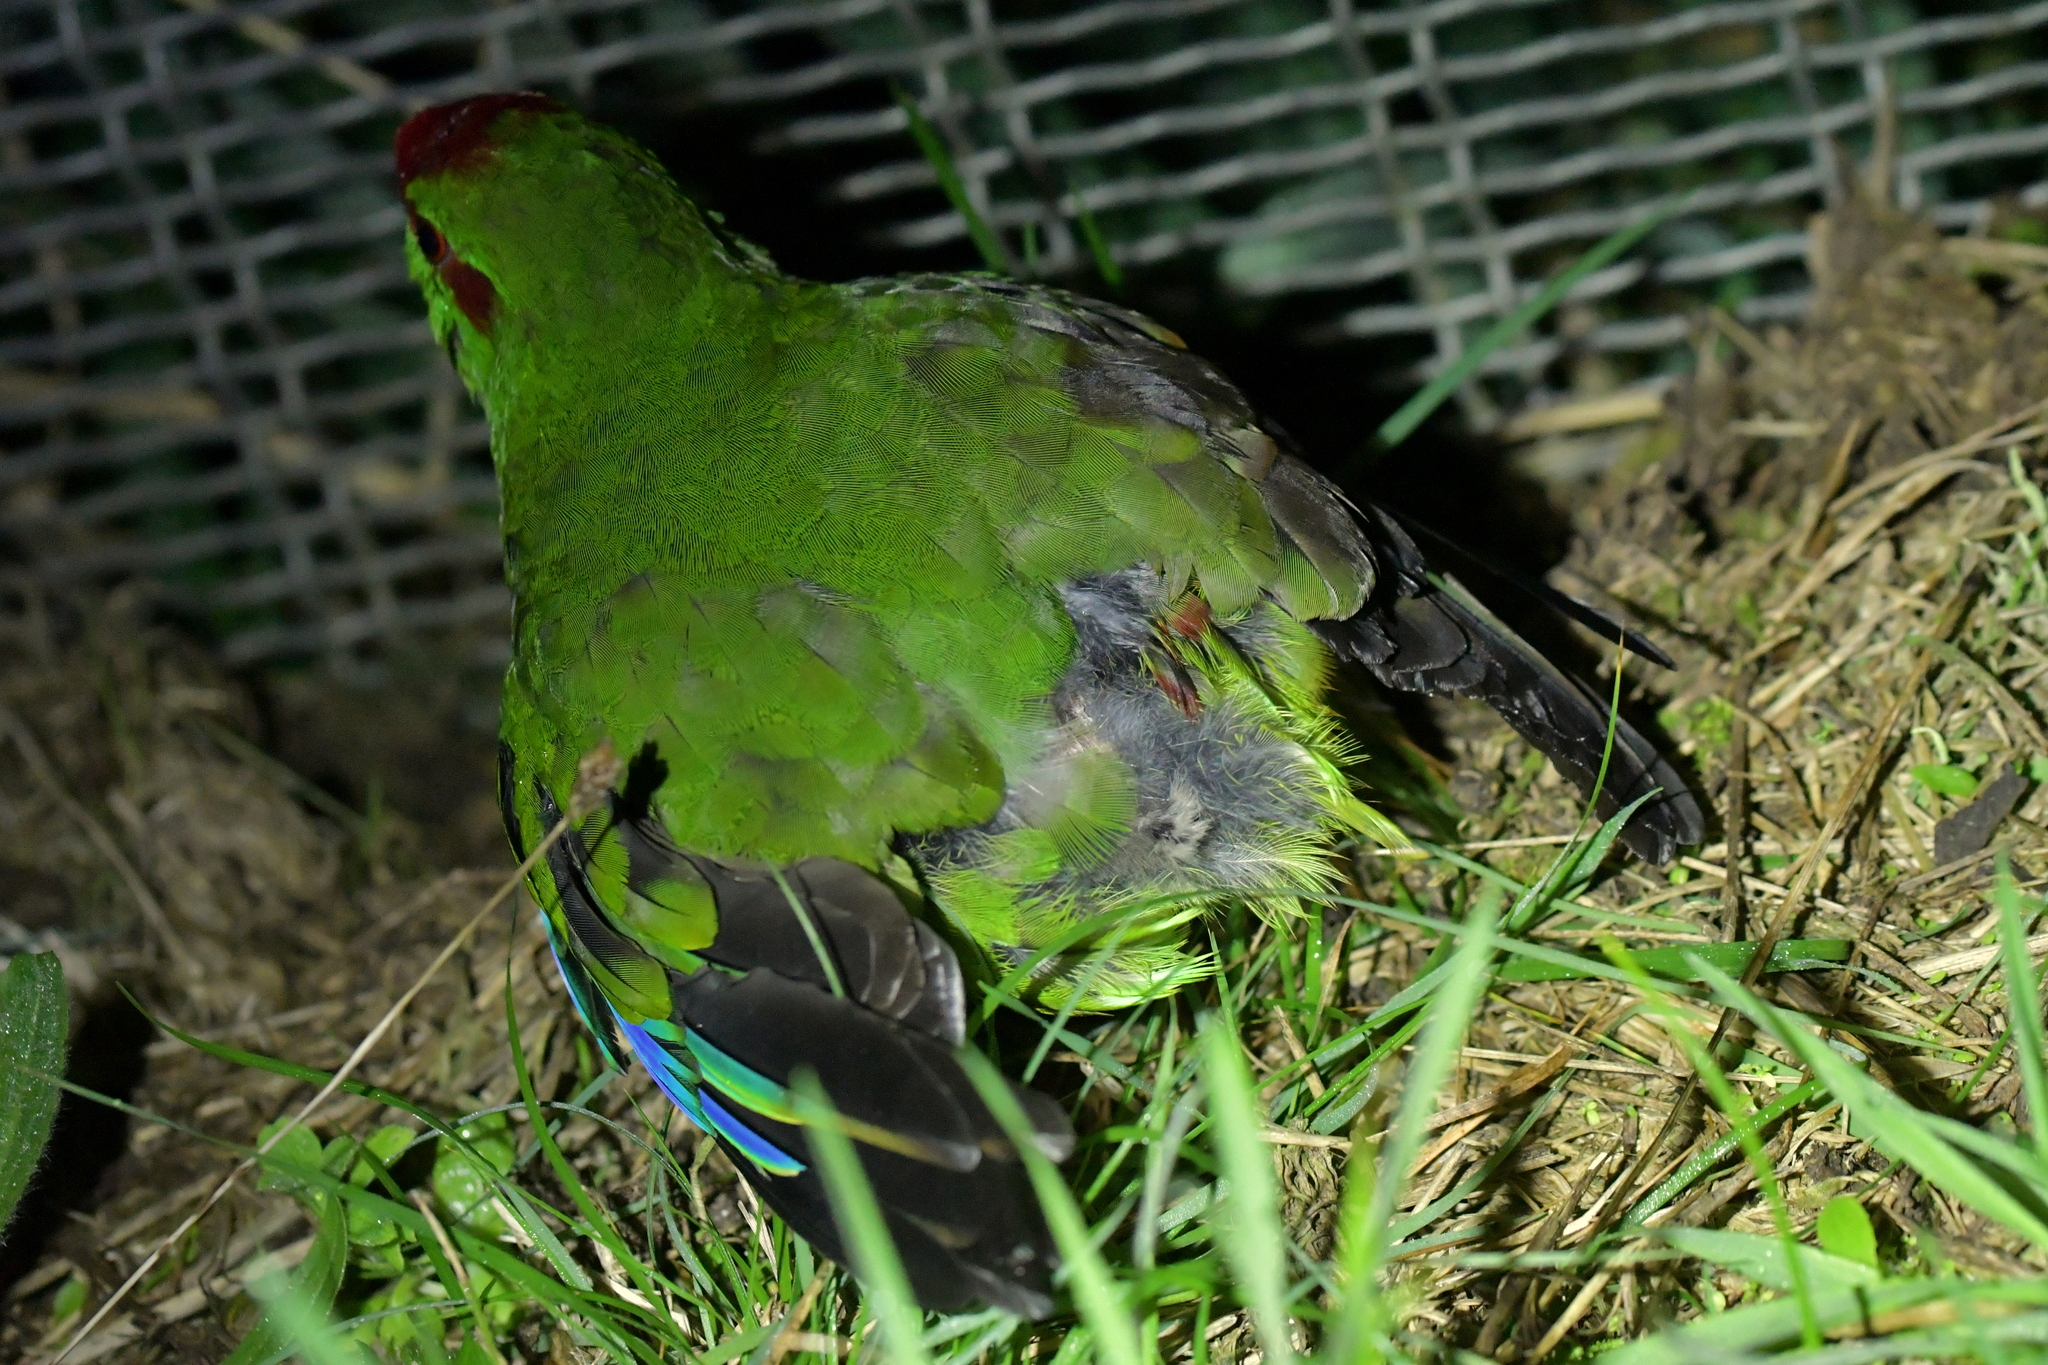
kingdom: Animalia
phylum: Chordata
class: Aves
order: Psittaciformes
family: Psittacidae
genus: Cyanoramphus
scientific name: Cyanoramphus novaezelandiae
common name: Red-fronted parakeet
